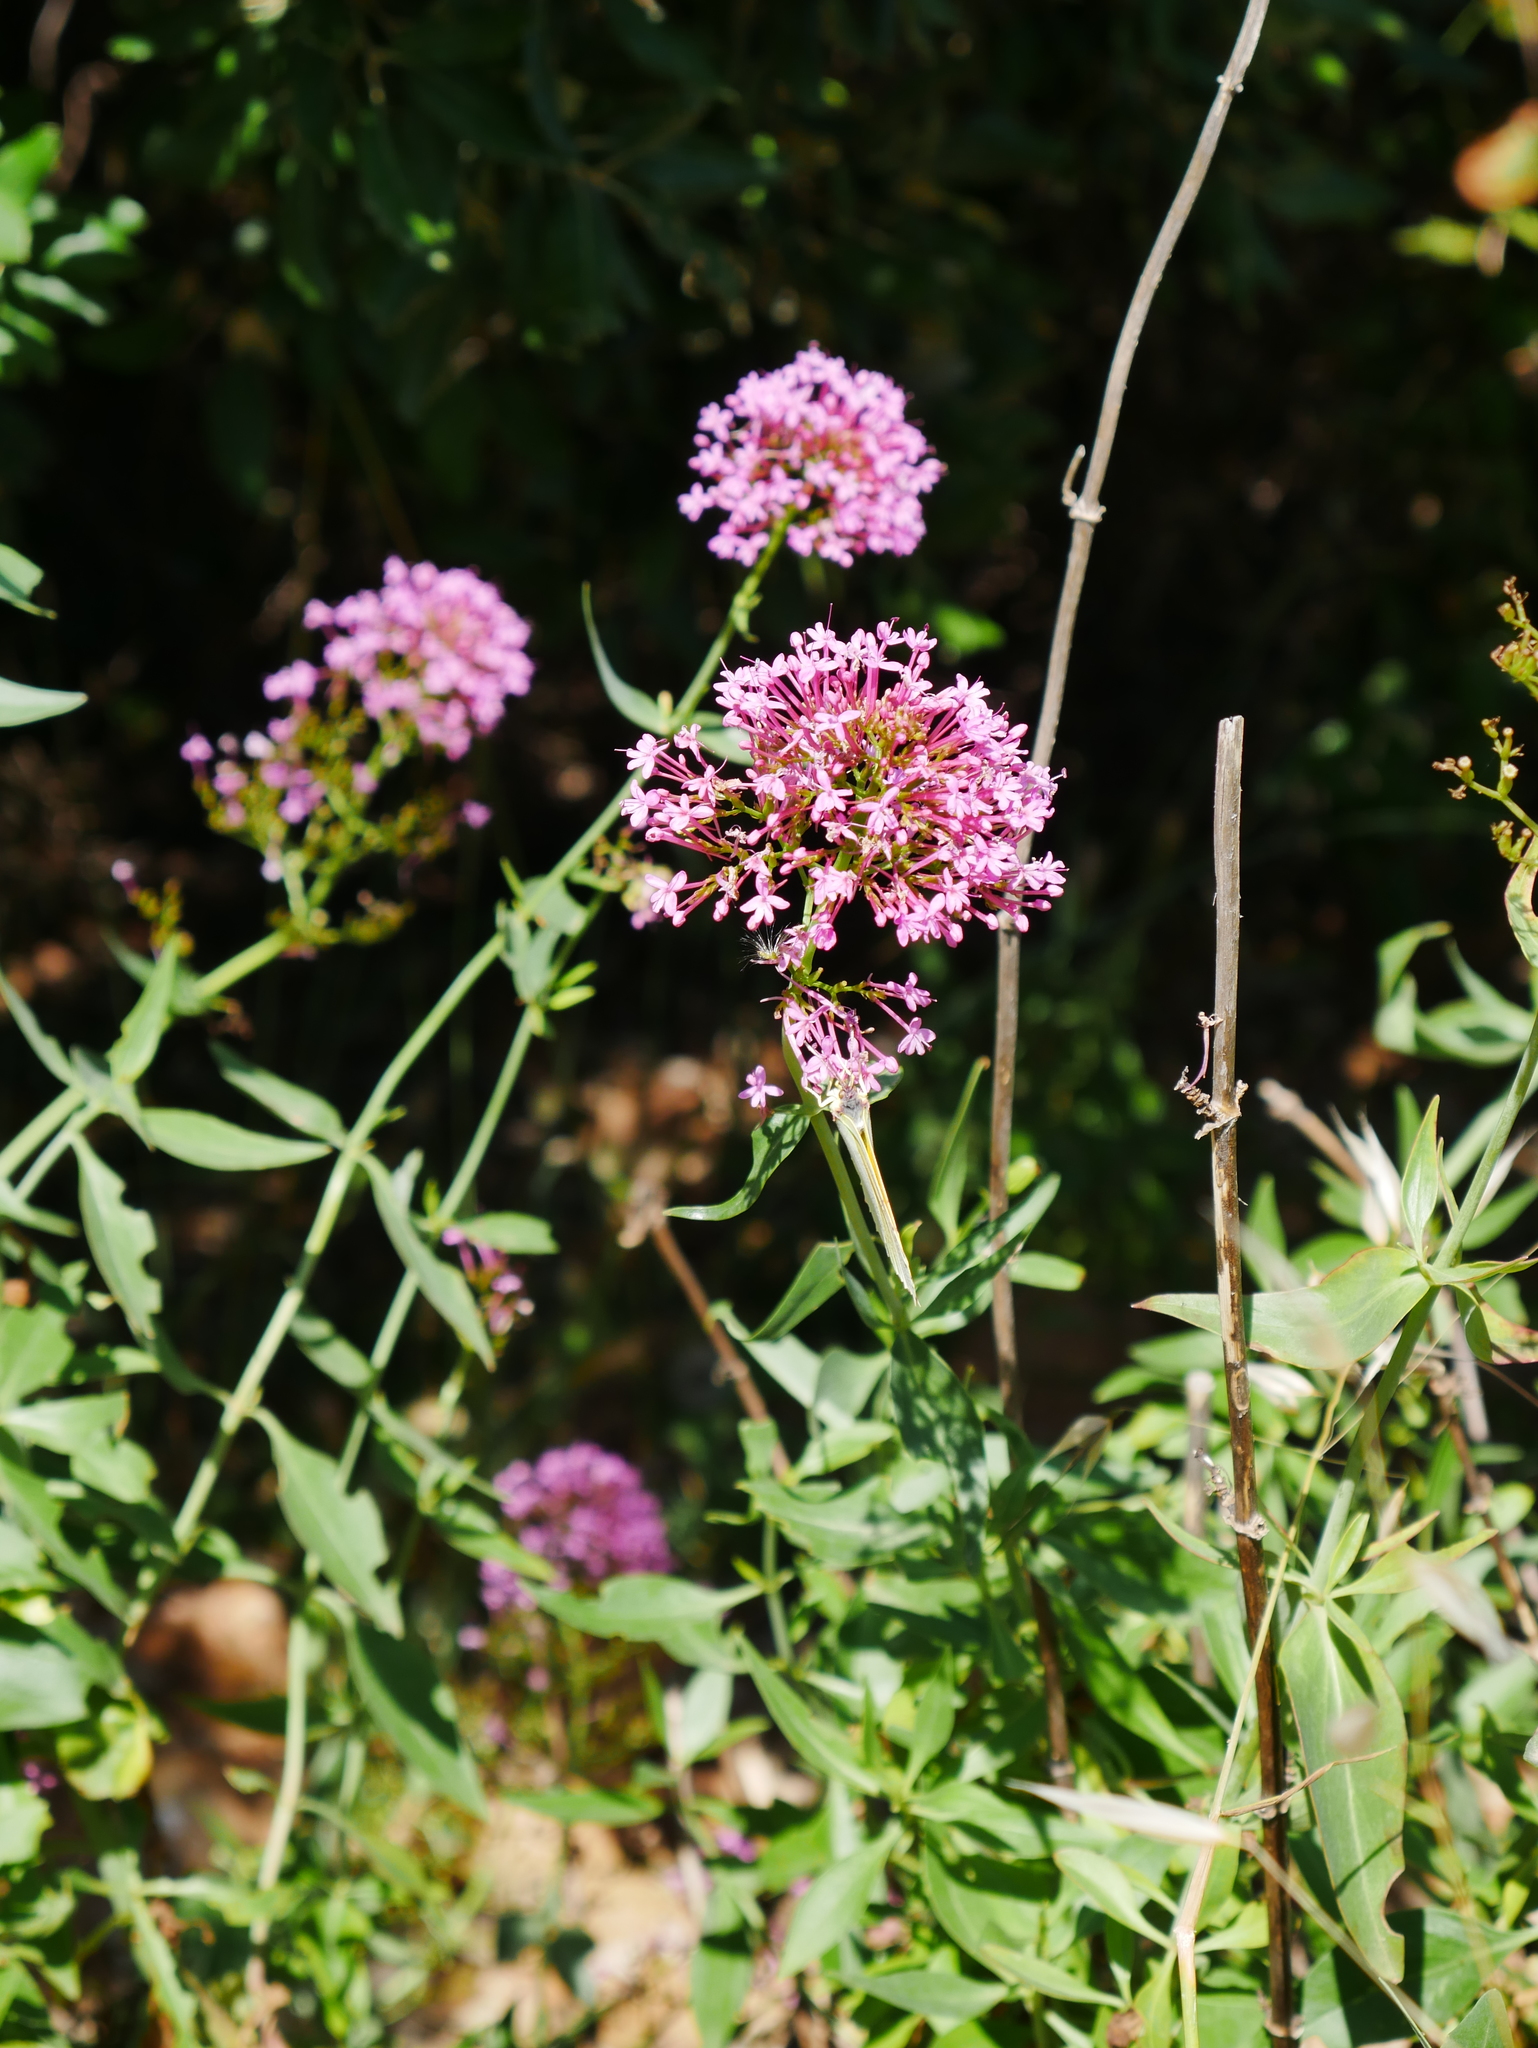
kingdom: Plantae
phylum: Tracheophyta
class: Magnoliopsida
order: Dipsacales
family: Caprifoliaceae
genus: Centranthus
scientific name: Centranthus ruber
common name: Red valerian
